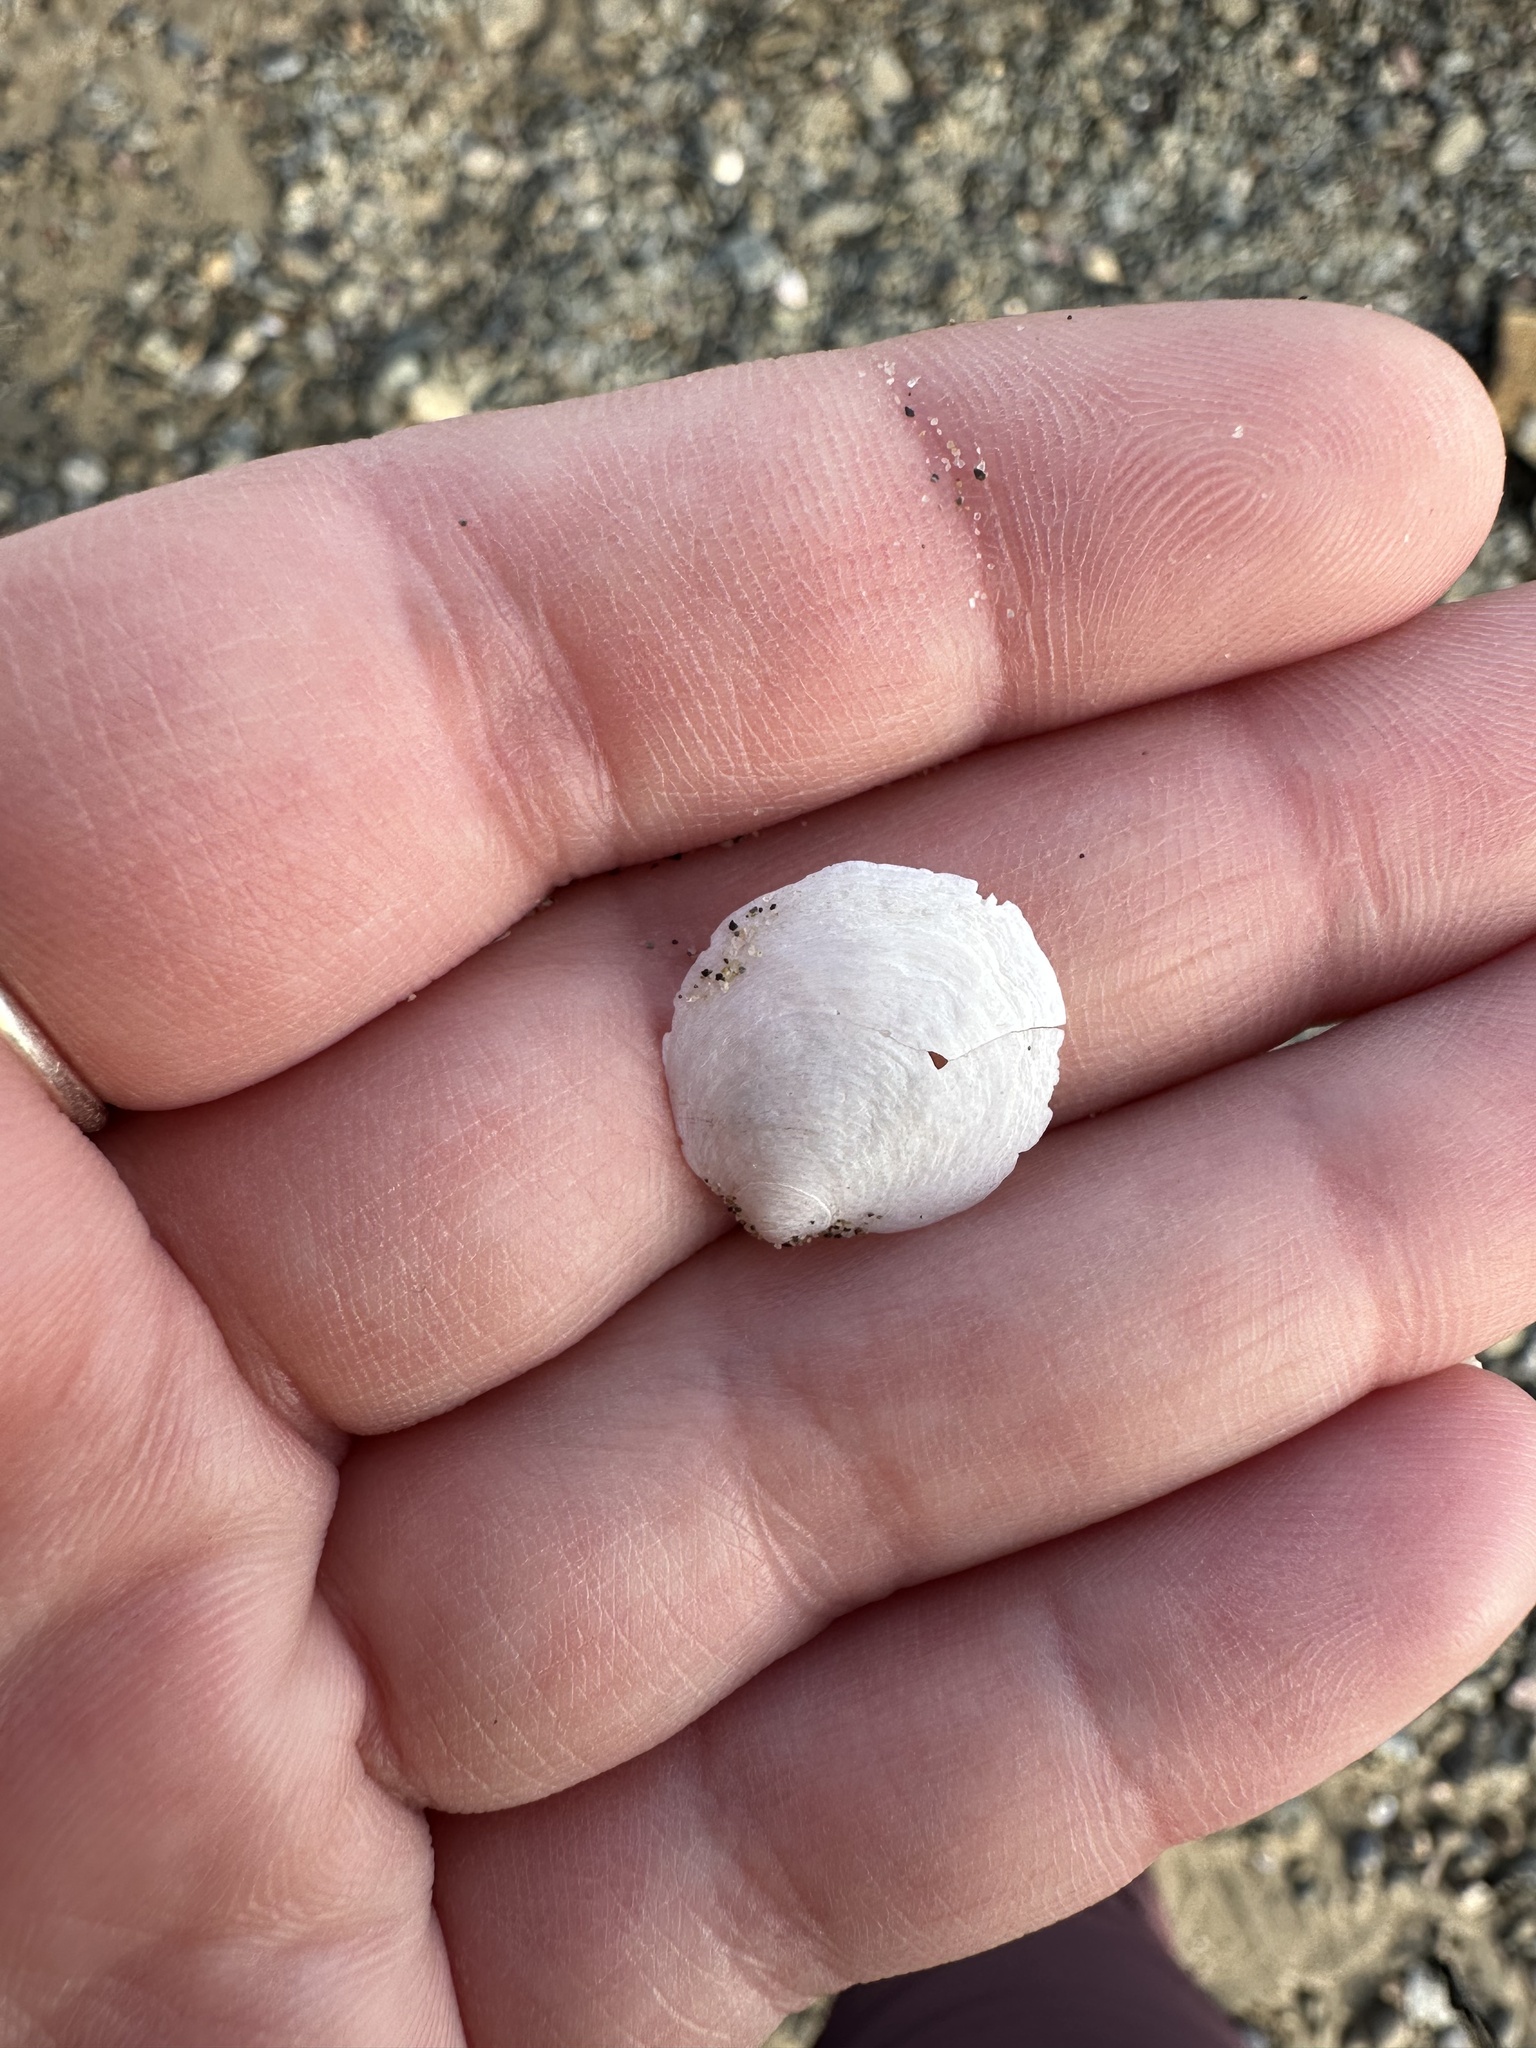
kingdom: Animalia
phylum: Mollusca
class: Gastropoda
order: Littorinimorpha
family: Calyptraeidae
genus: Crepidula
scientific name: Crepidula plana
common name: Eastern white slippersnail
